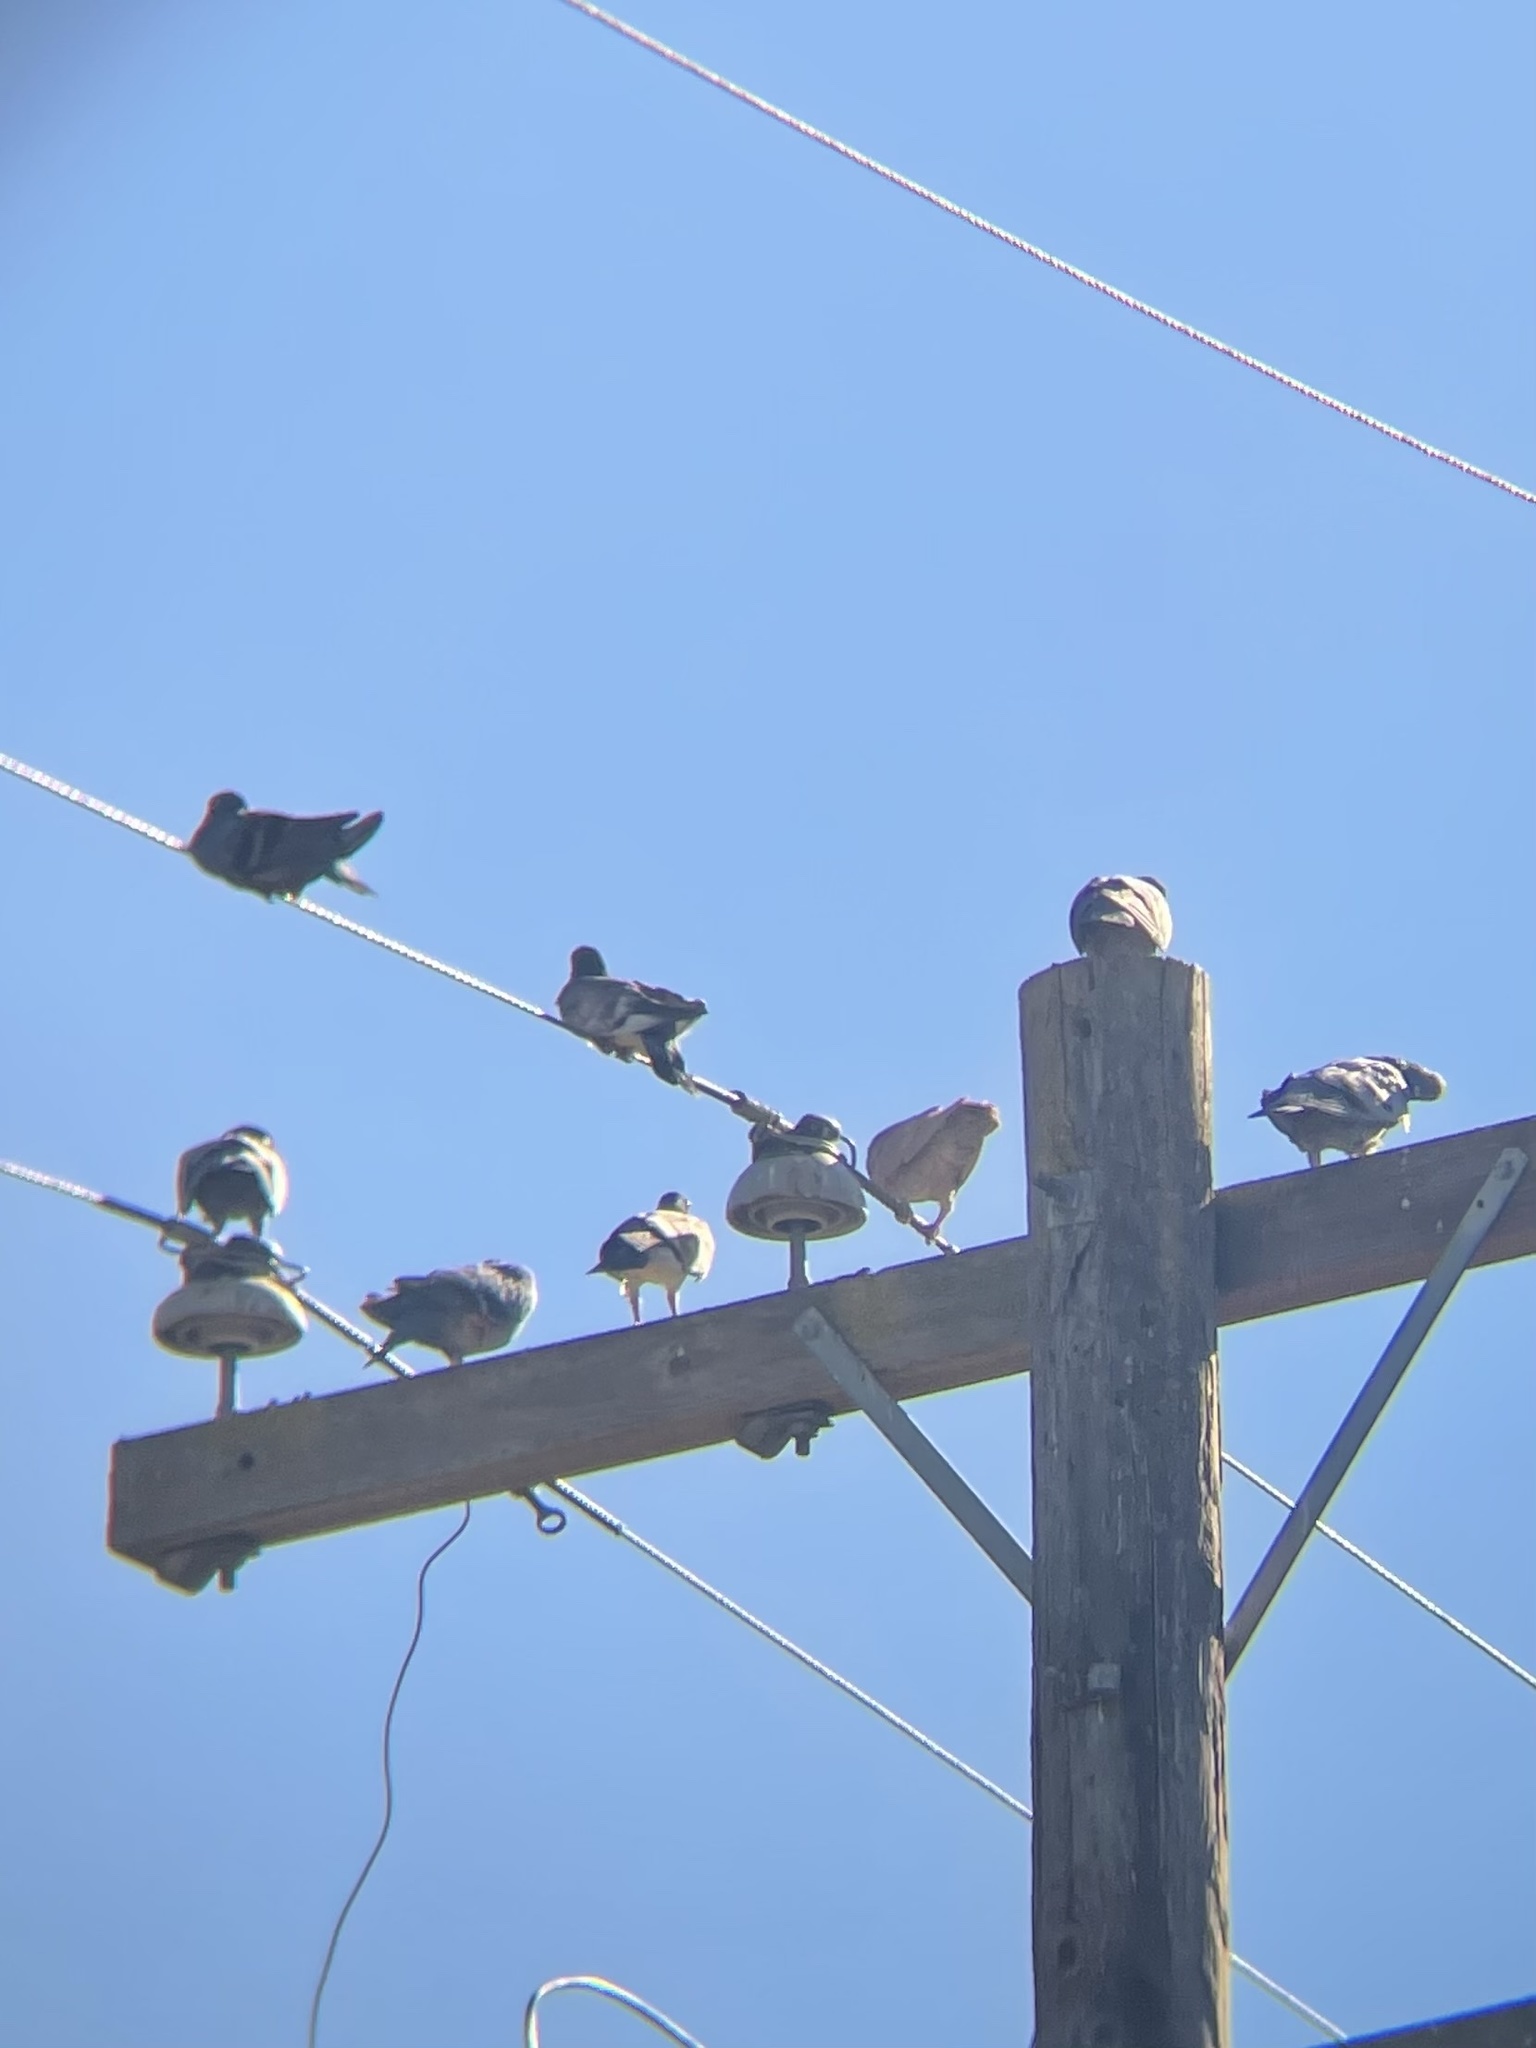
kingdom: Animalia
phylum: Chordata
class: Aves
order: Columbiformes
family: Columbidae
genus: Columba
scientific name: Columba livia
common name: Rock pigeon
